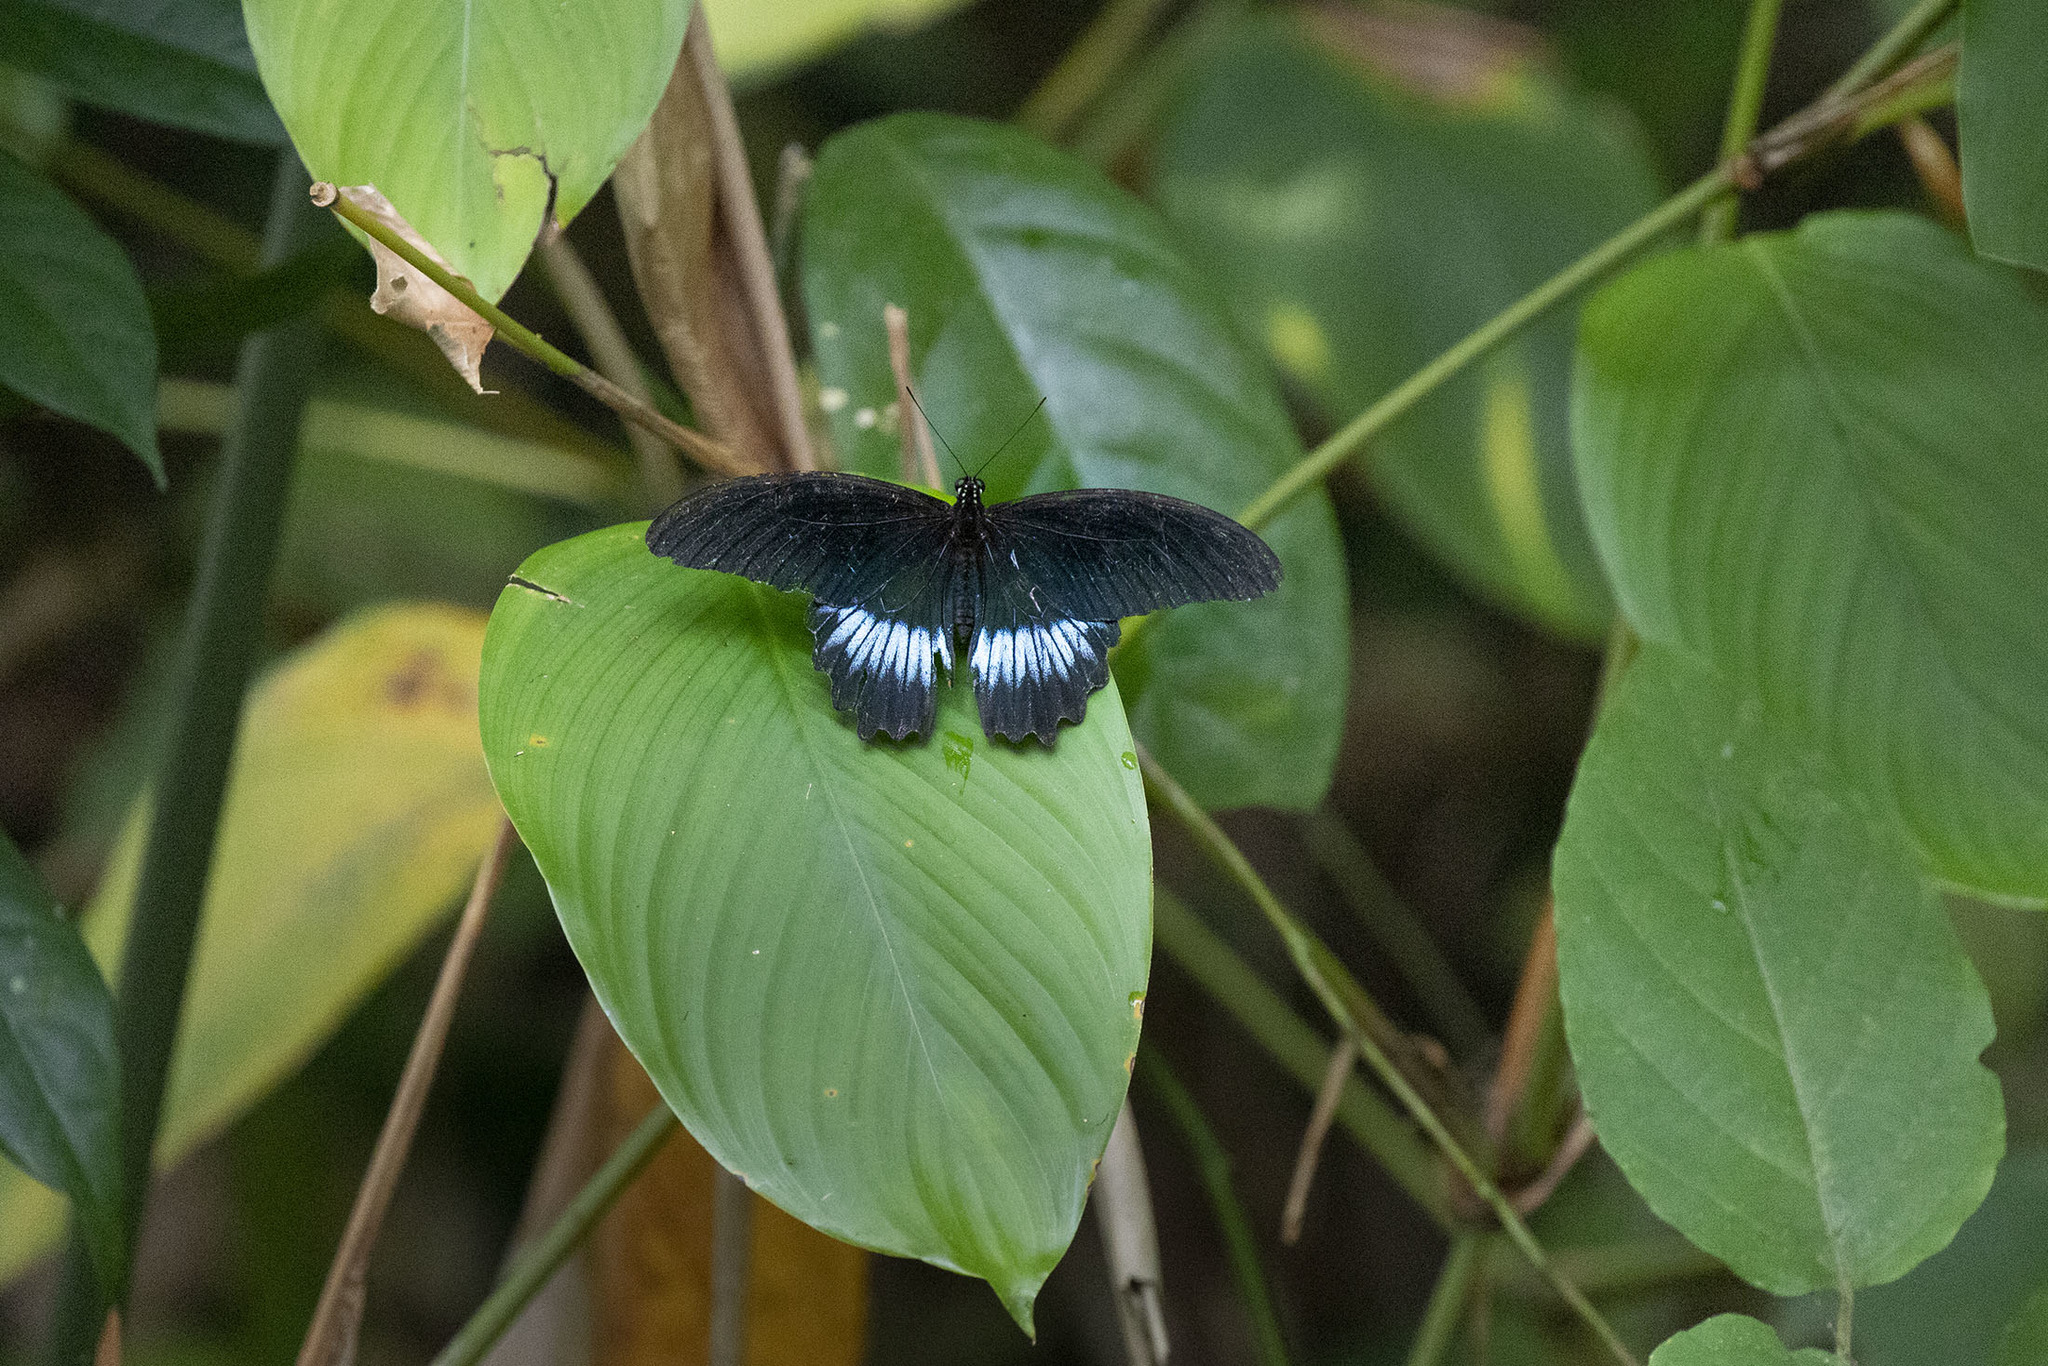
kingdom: Animalia
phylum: Arthropoda
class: Insecta
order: Lepidoptera
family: Papilionidae
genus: Papilio
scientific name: Papilio memnon
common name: Great mormon
